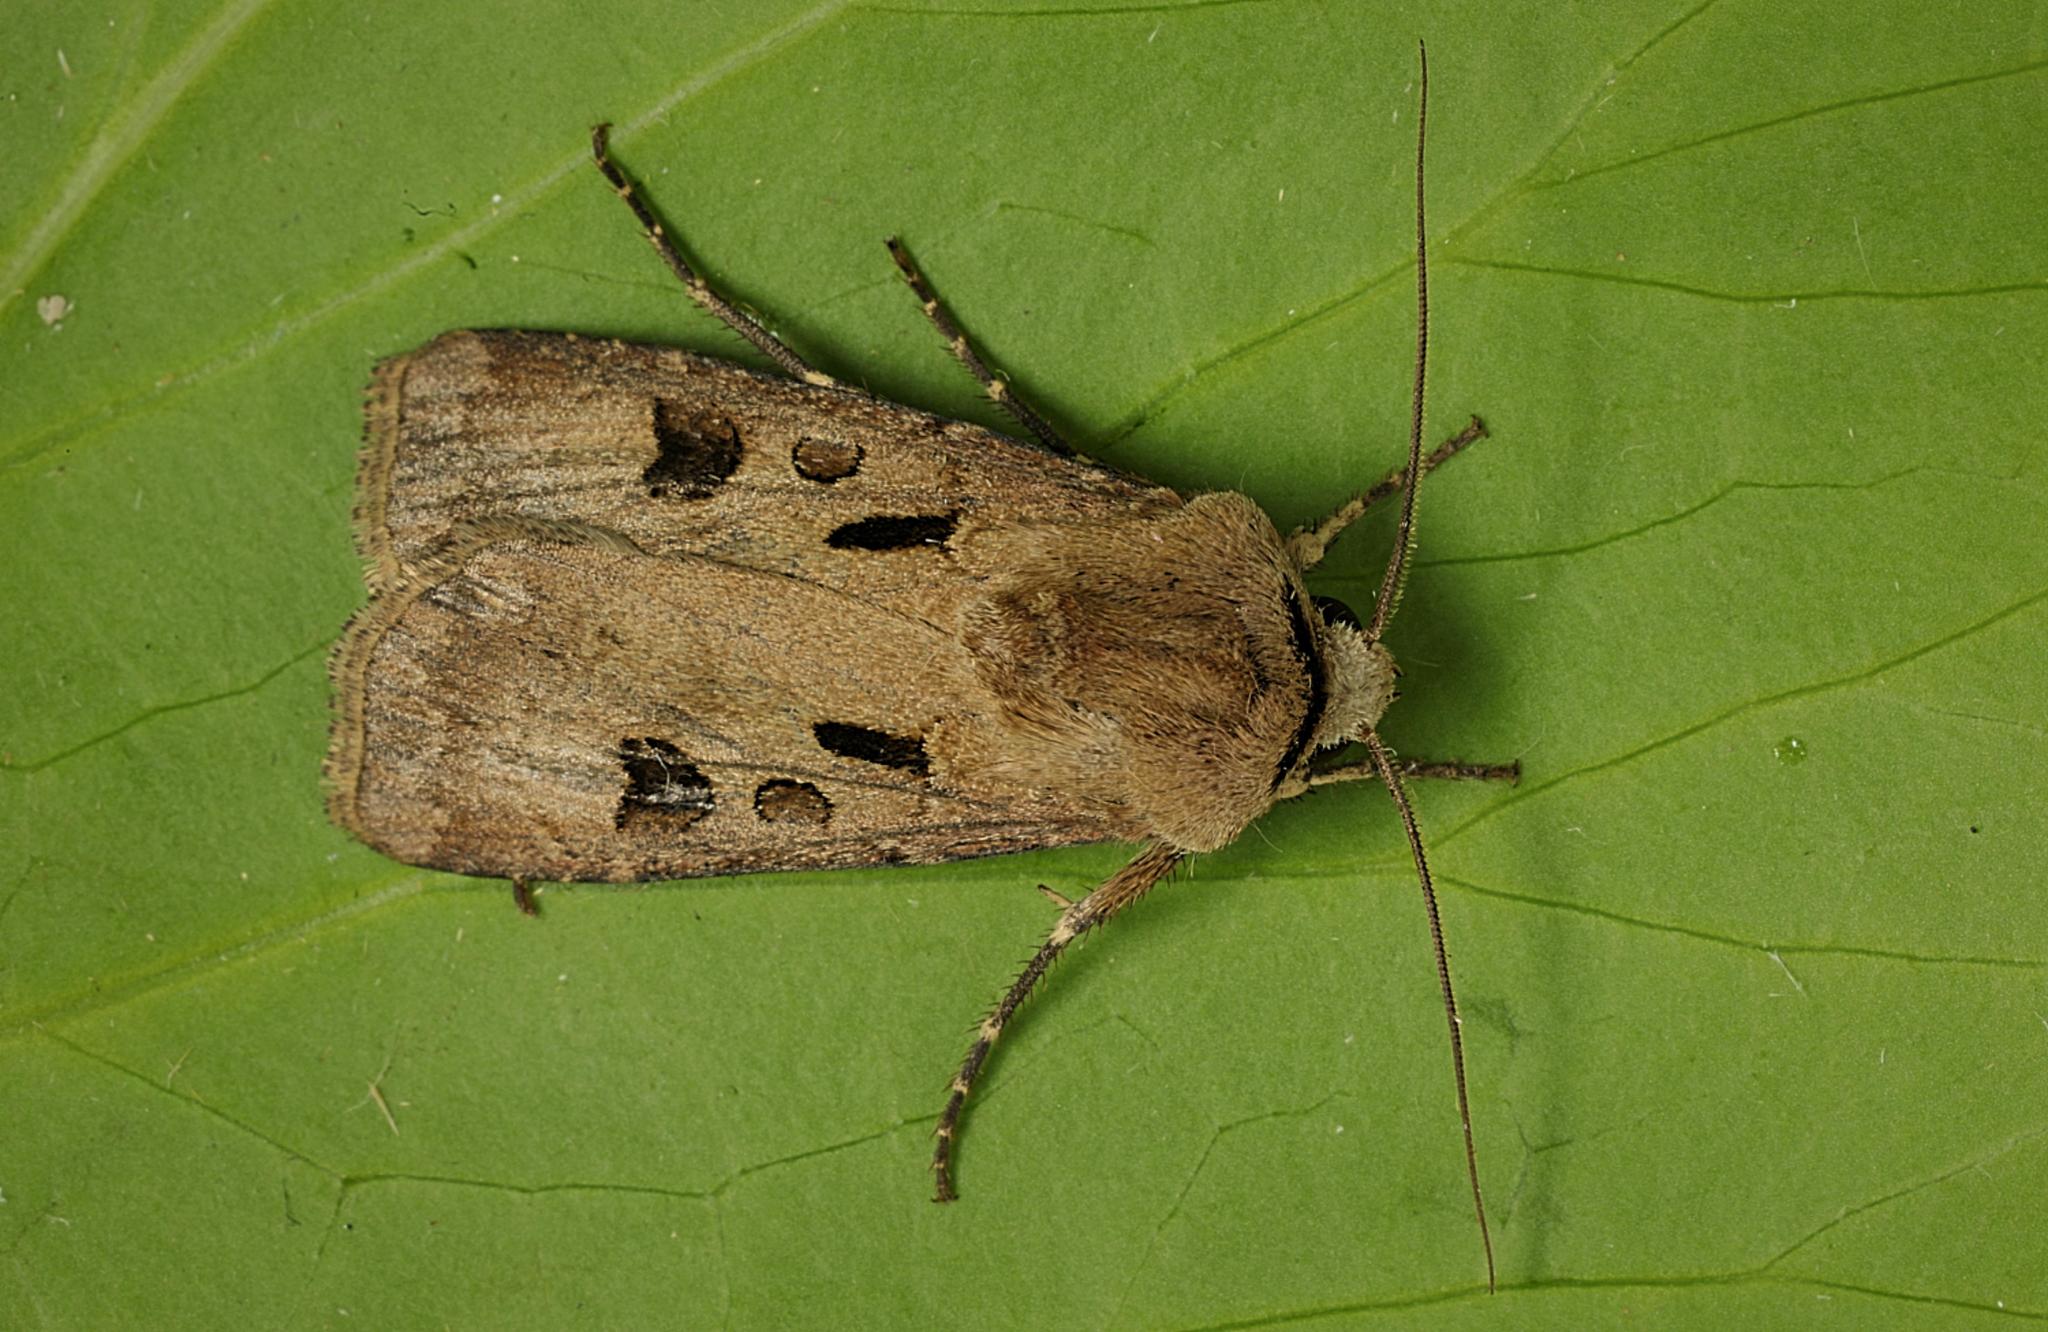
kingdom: Animalia
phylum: Arthropoda
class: Insecta
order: Lepidoptera
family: Noctuidae
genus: Agrotis
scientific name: Agrotis exclamationis
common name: Heart and dart
